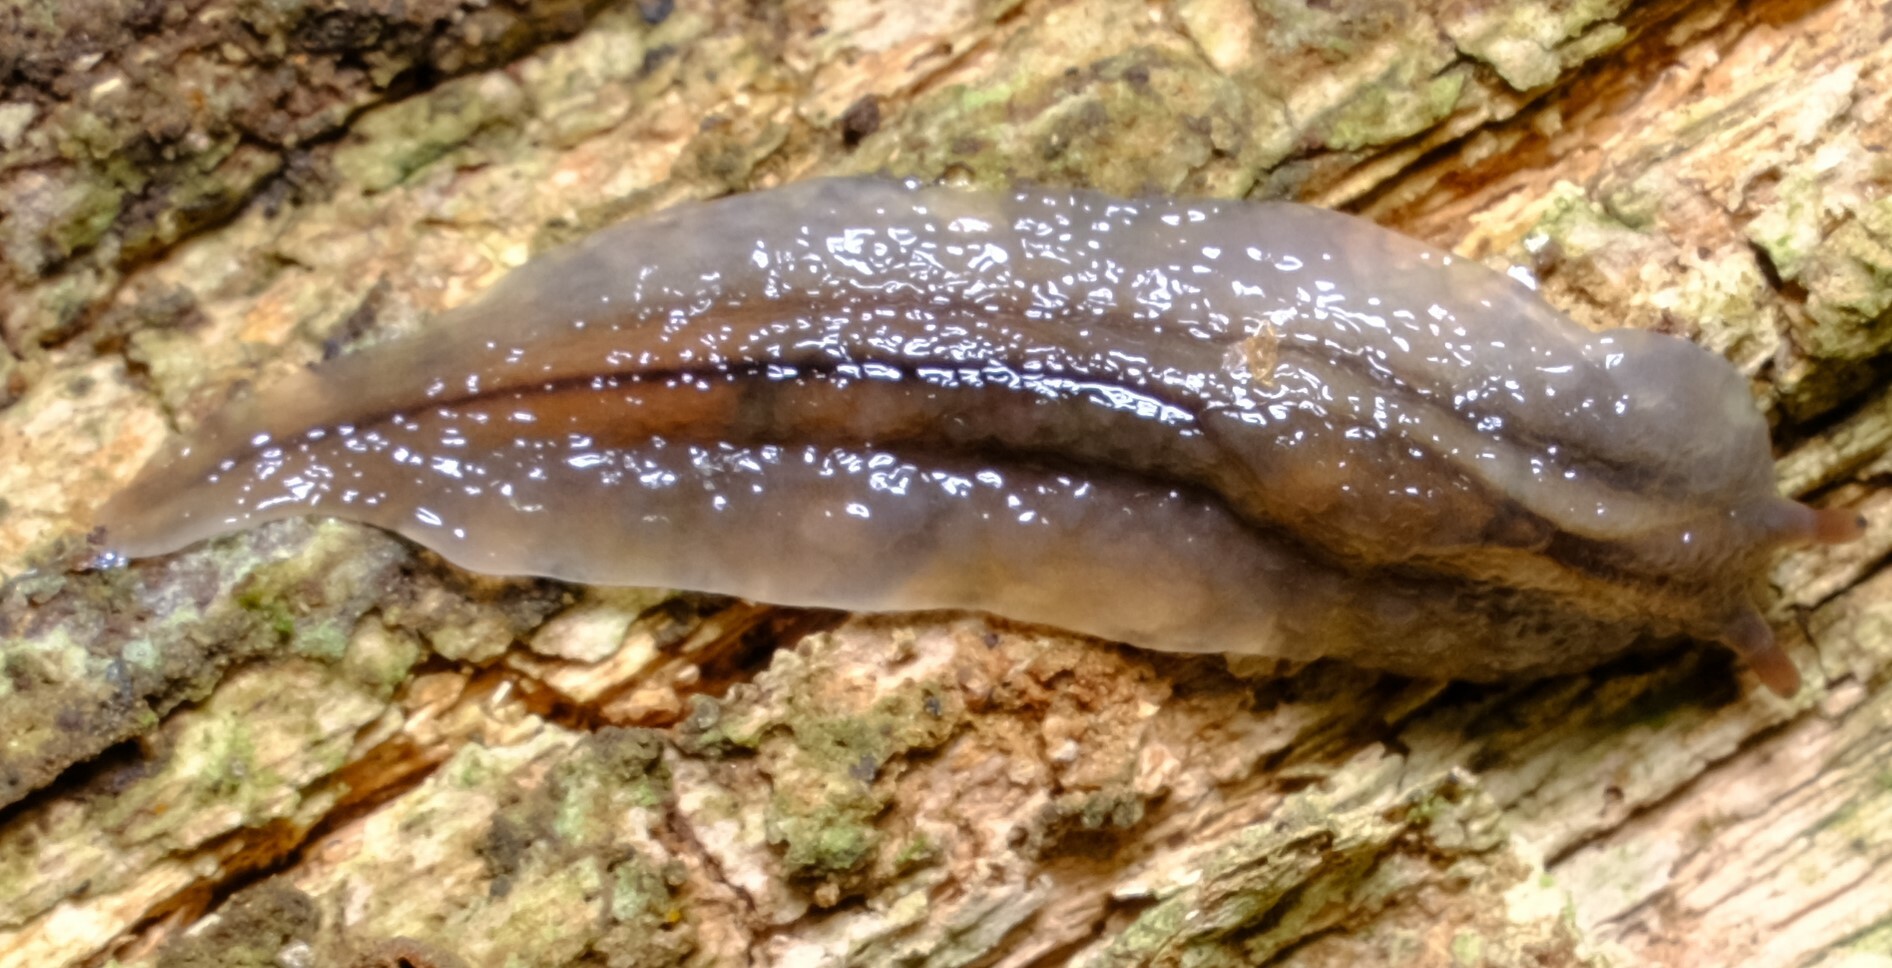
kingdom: Animalia
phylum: Mollusca
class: Gastropoda
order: Stylommatophora
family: Athoracophoridae
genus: Triboniophorus
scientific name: Triboniophorus graeffei
